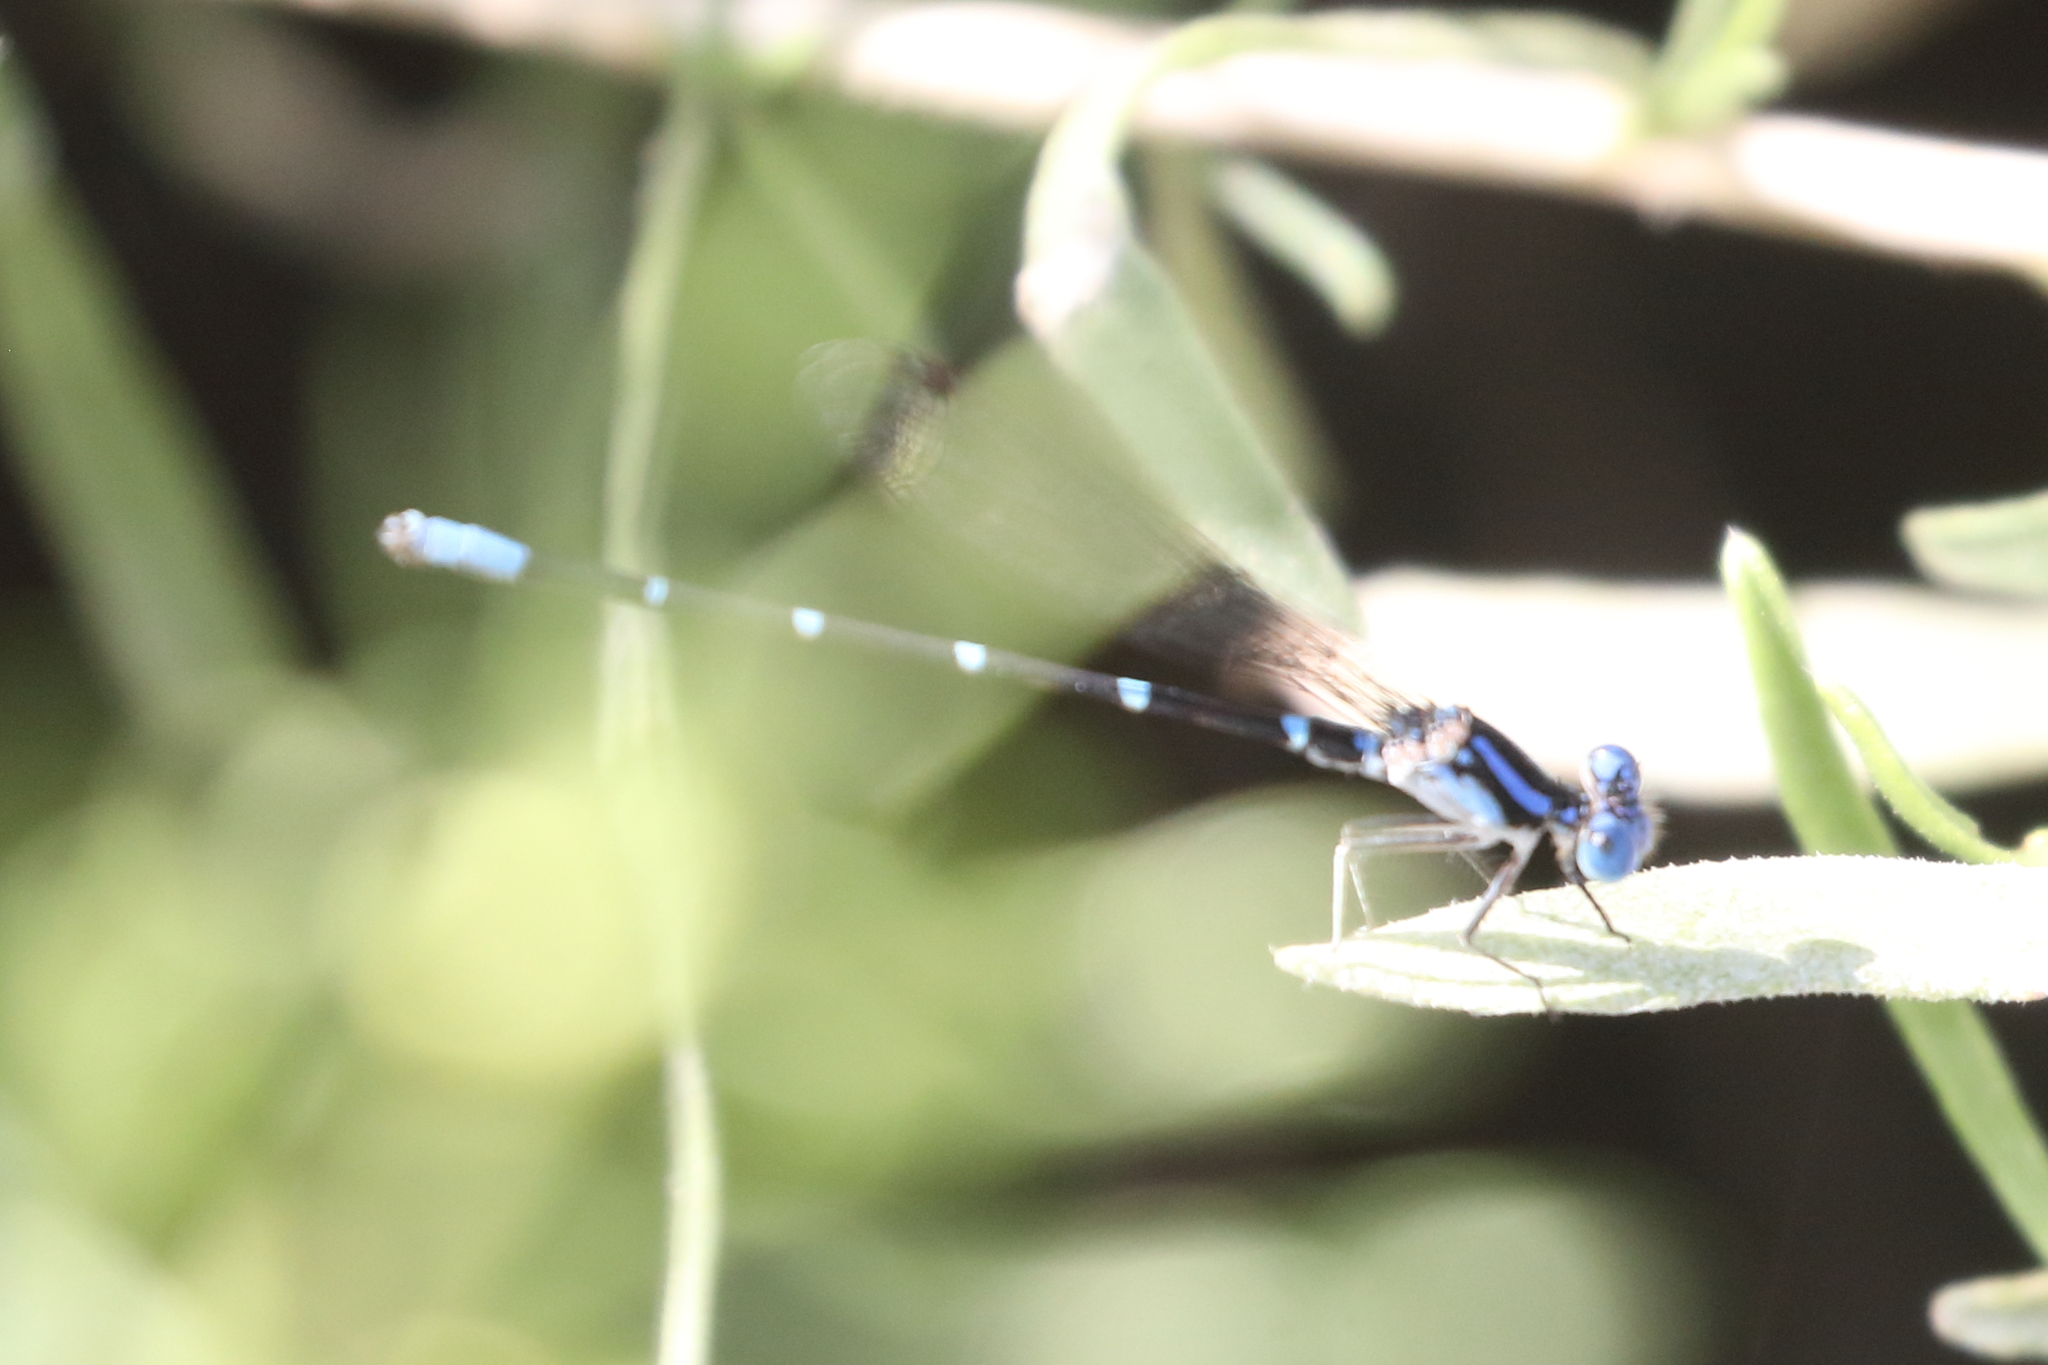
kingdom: Animalia
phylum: Arthropoda
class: Insecta
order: Odonata
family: Coenagrionidae
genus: Argia
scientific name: Argia sedula
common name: Blue-ringed dancer
